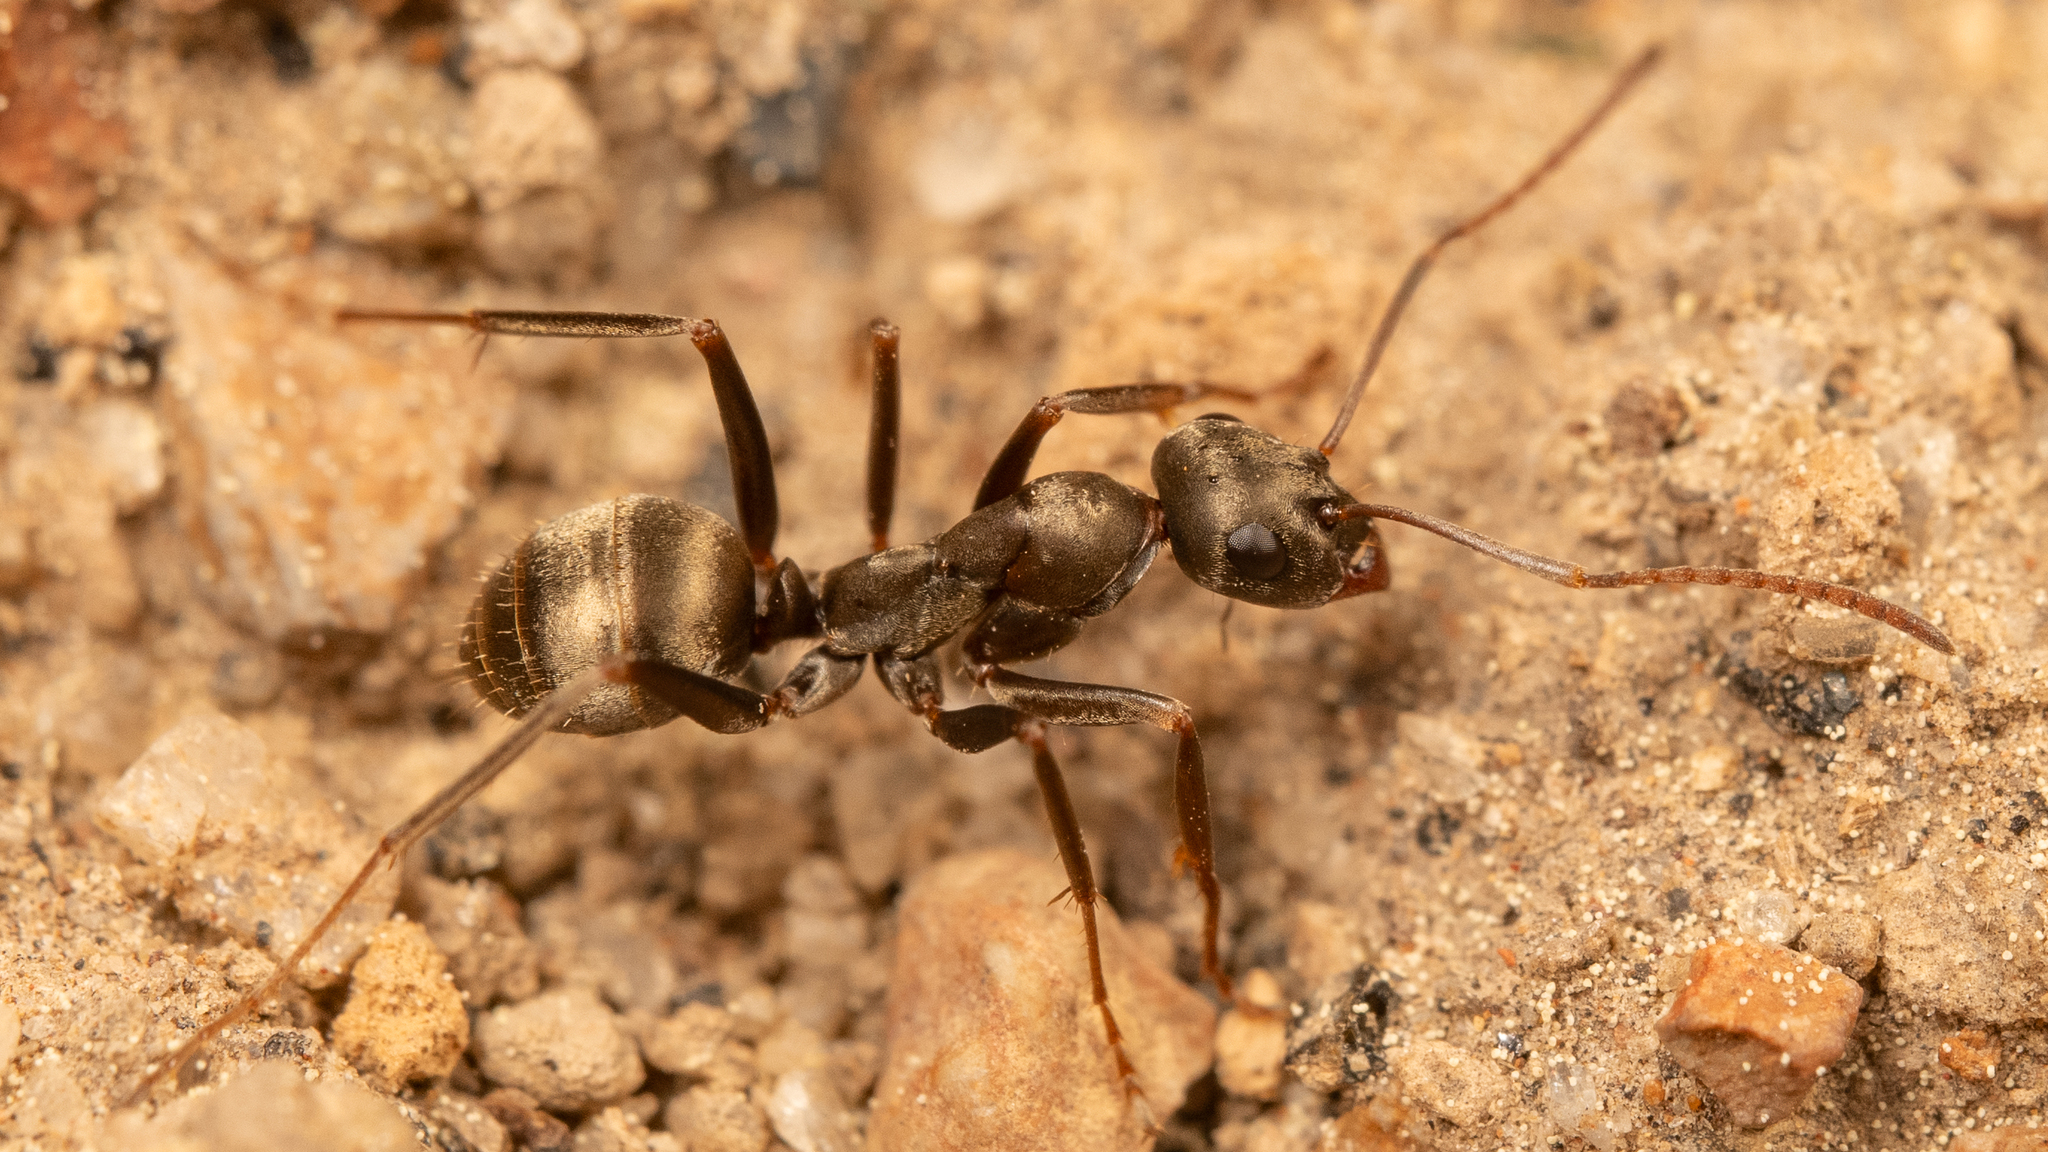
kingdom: Animalia
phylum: Arthropoda
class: Insecta
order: Hymenoptera
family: Formicidae
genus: Formica
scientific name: Formica sibylla
